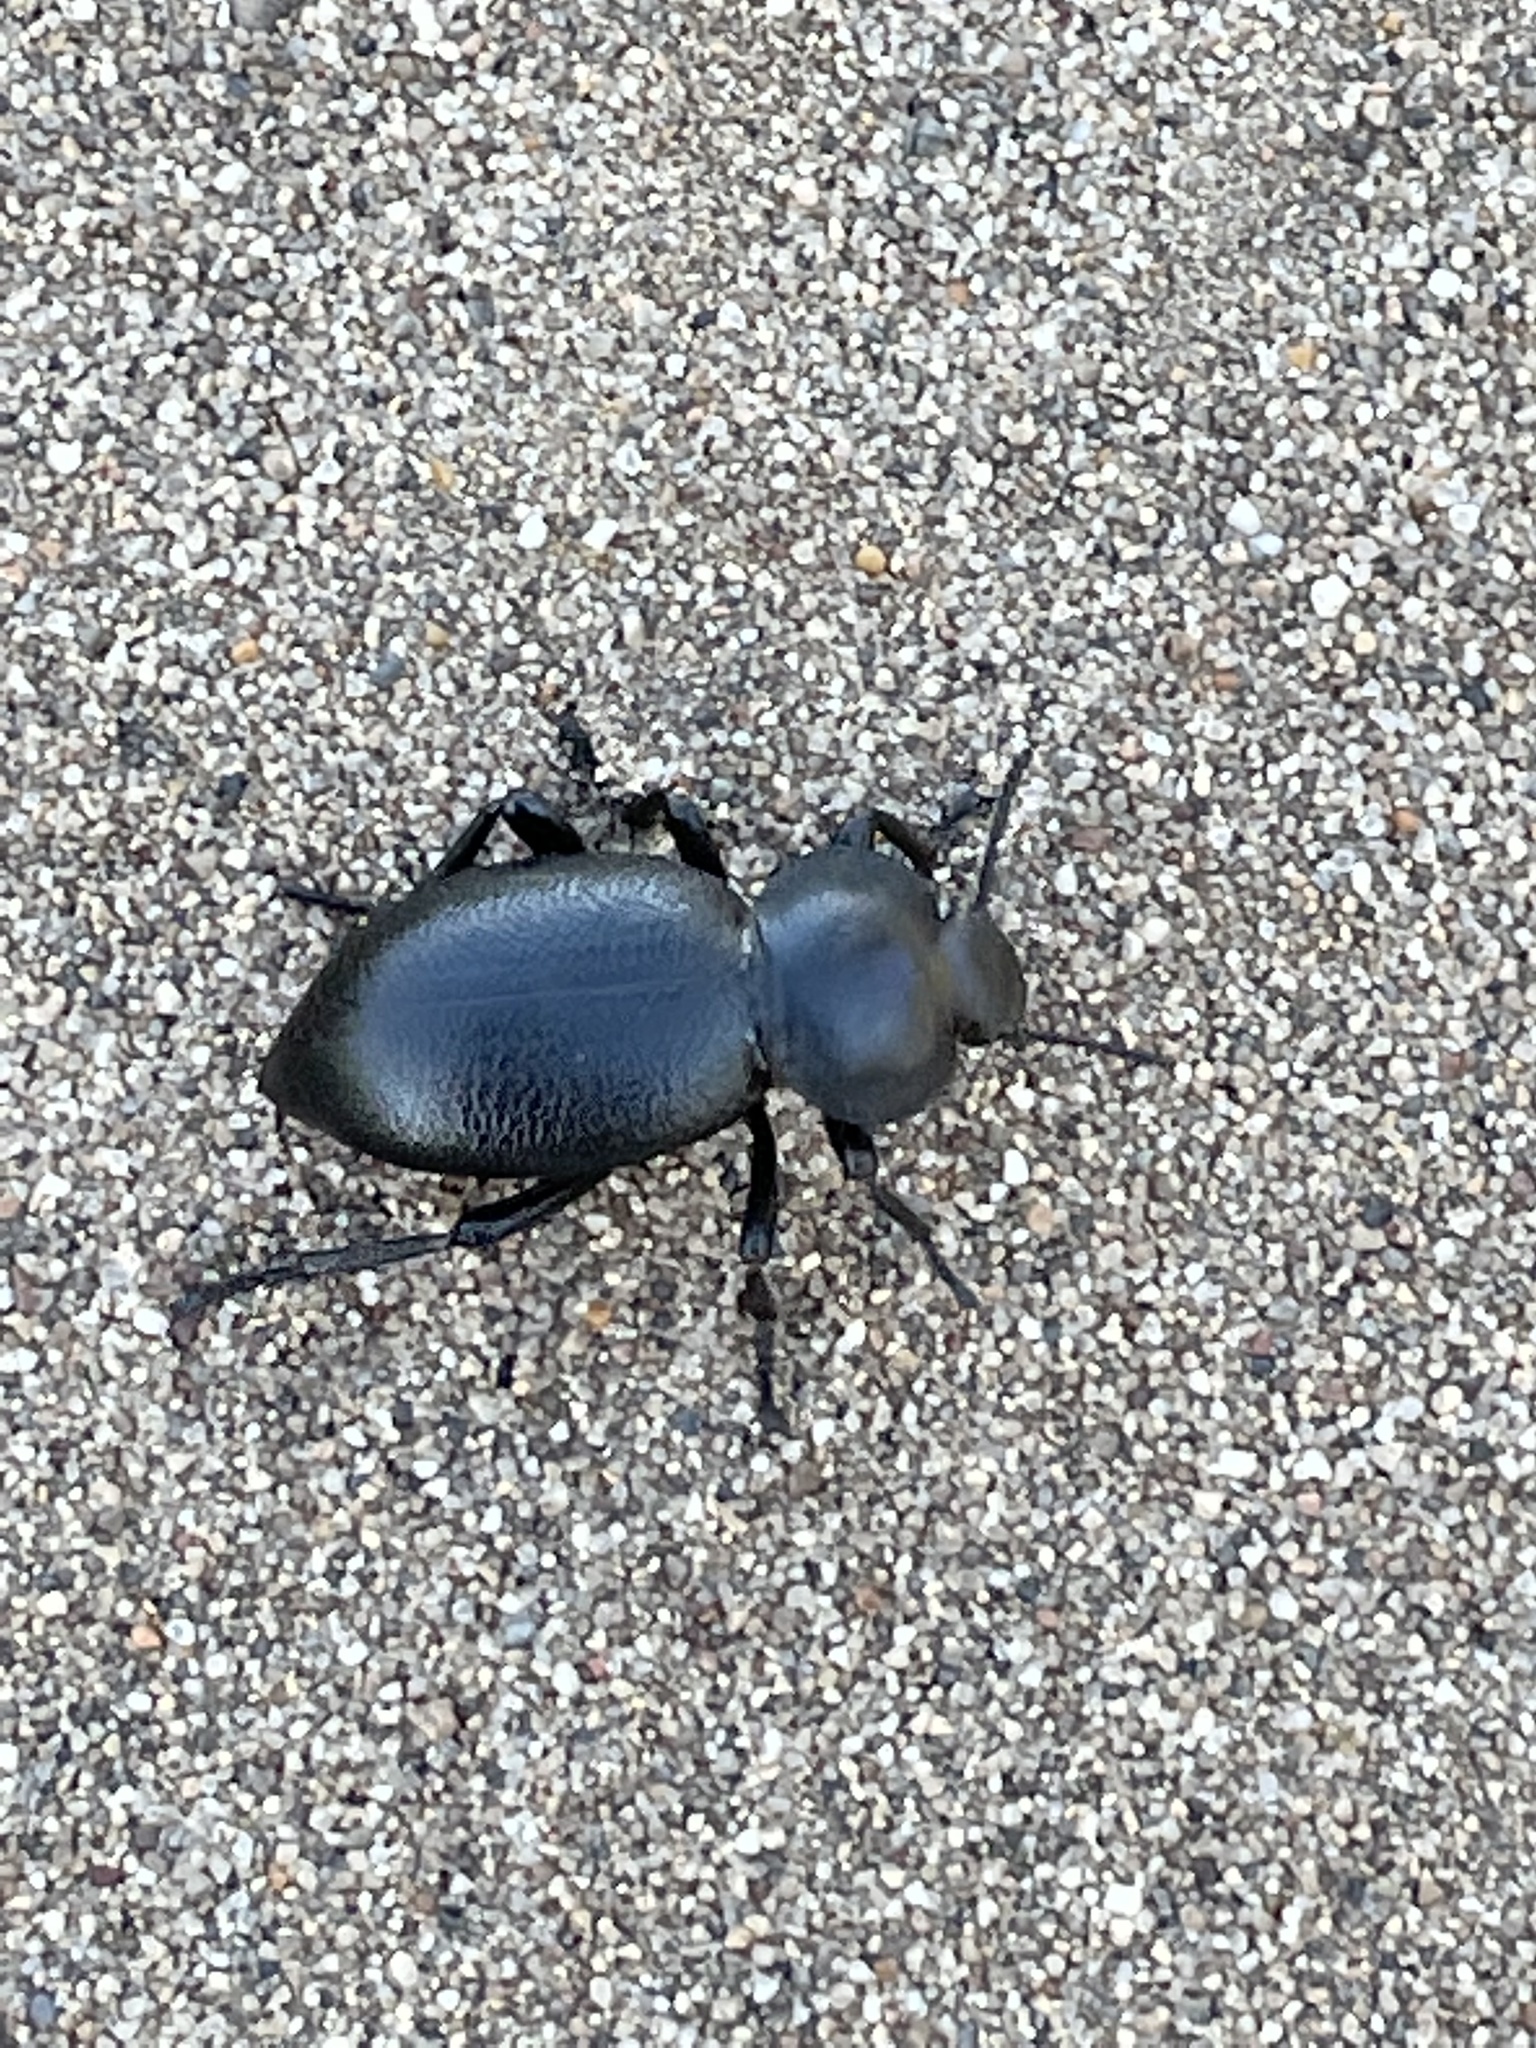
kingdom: Animalia
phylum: Arthropoda
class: Insecta
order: Coleoptera
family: Tenebrionidae
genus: Eleodes
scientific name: Eleodes marginata
